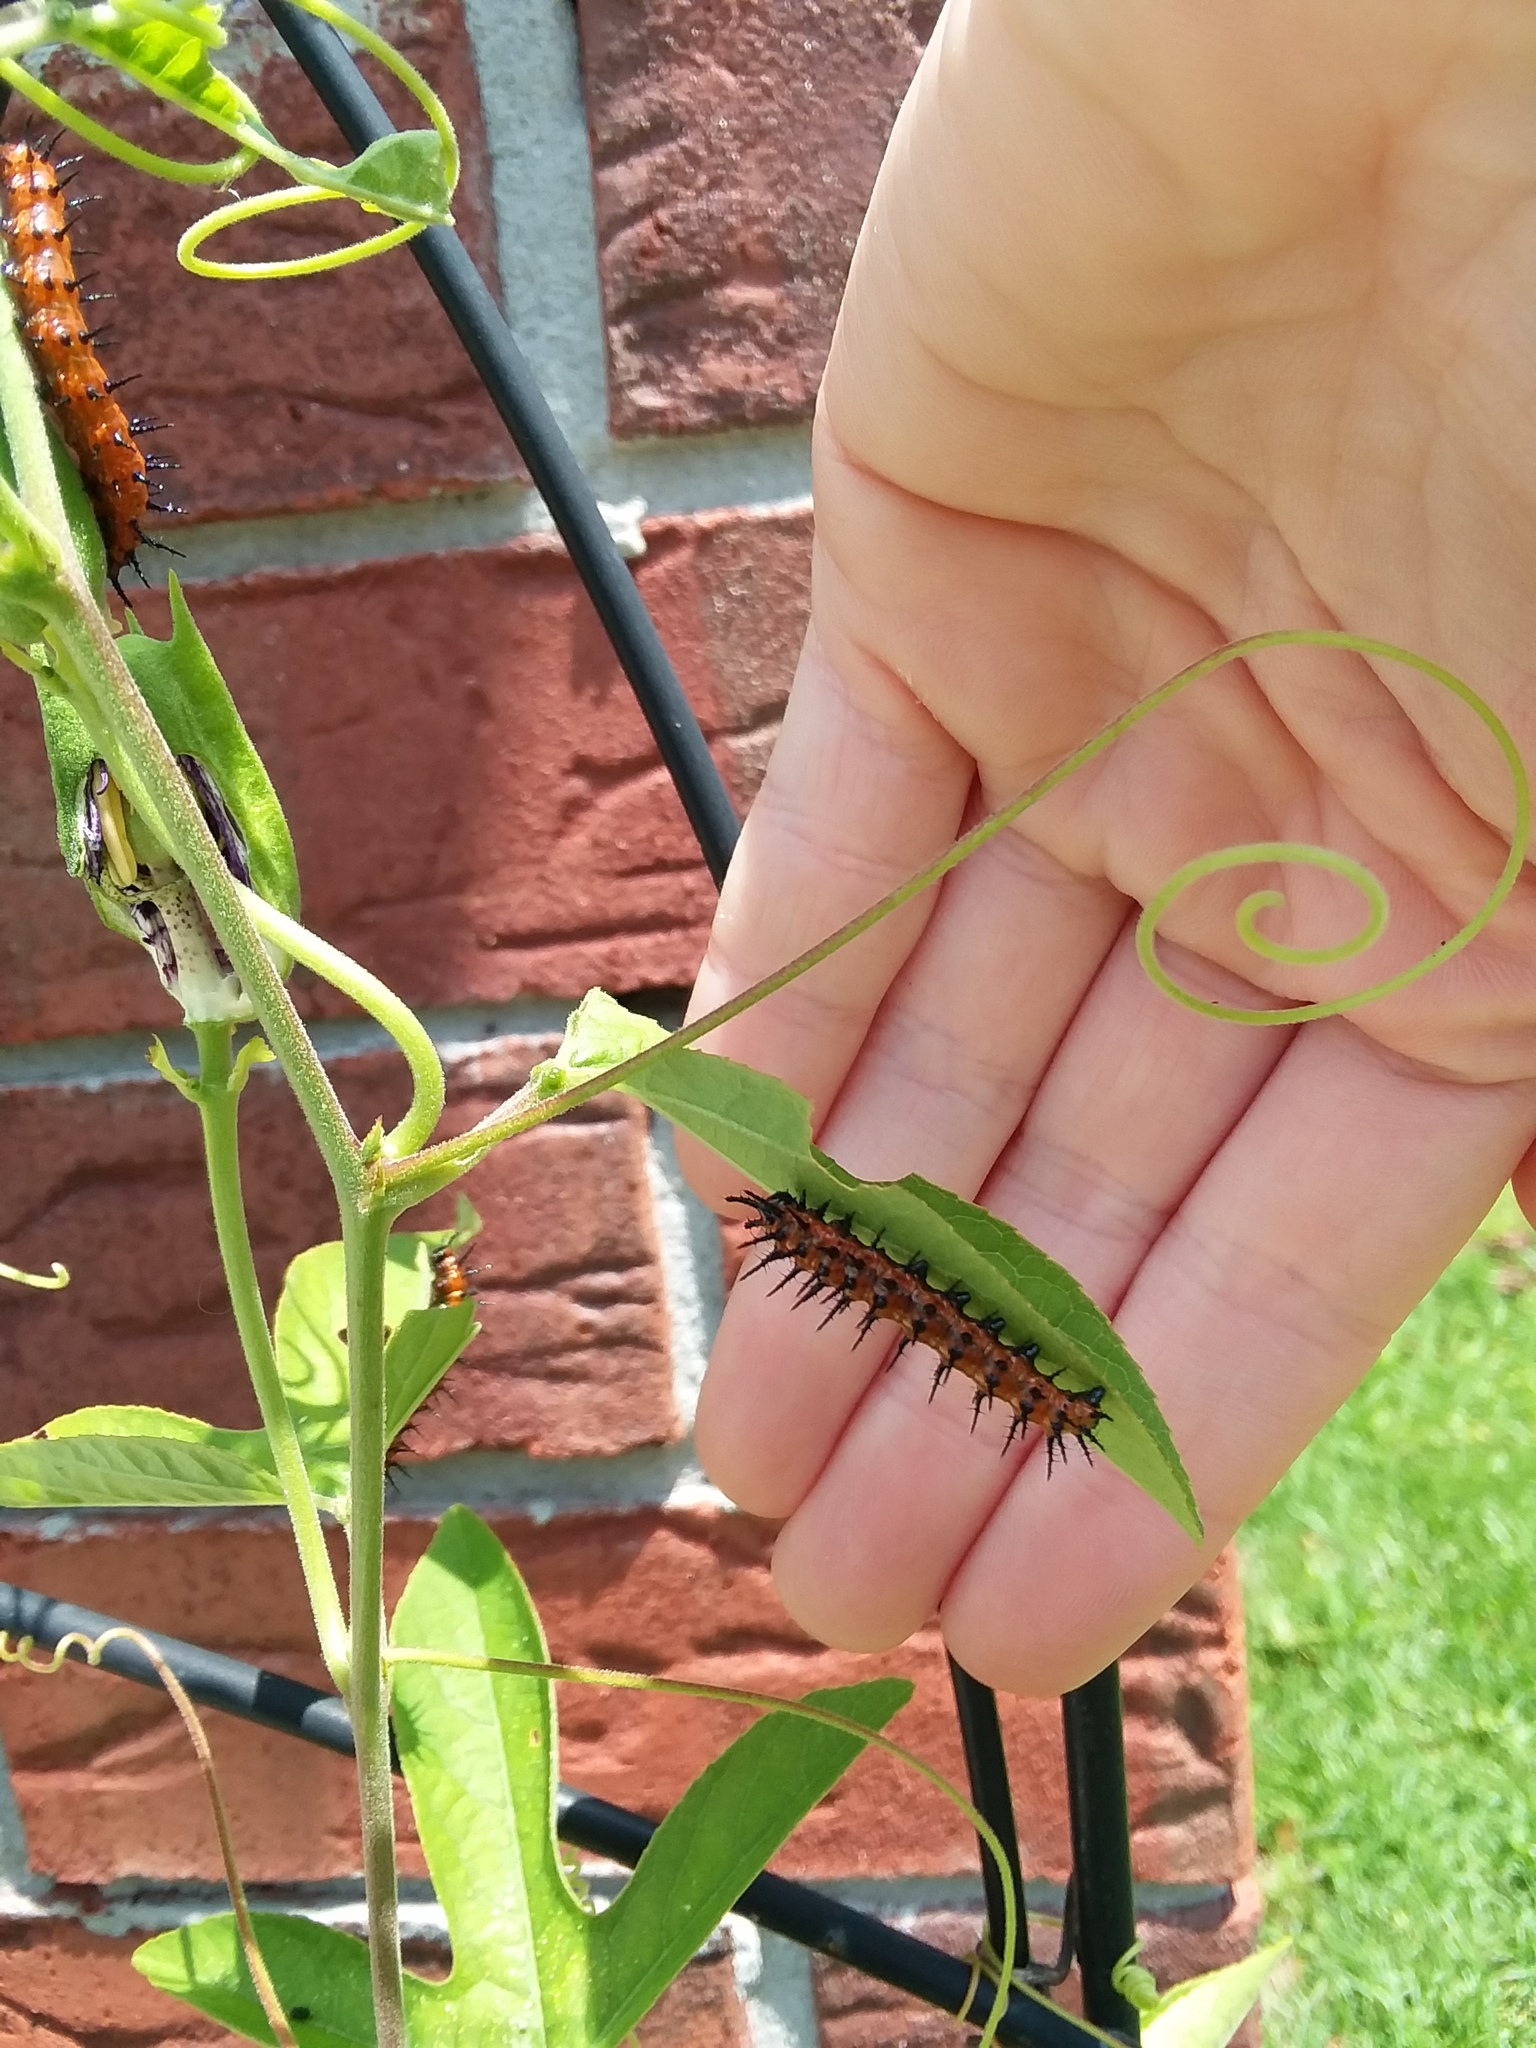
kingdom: Animalia
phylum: Arthropoda
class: Insecta
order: Lepidoptera
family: Nymphalidae
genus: Dione
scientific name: Dione vanillae
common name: Gulf fritillary
